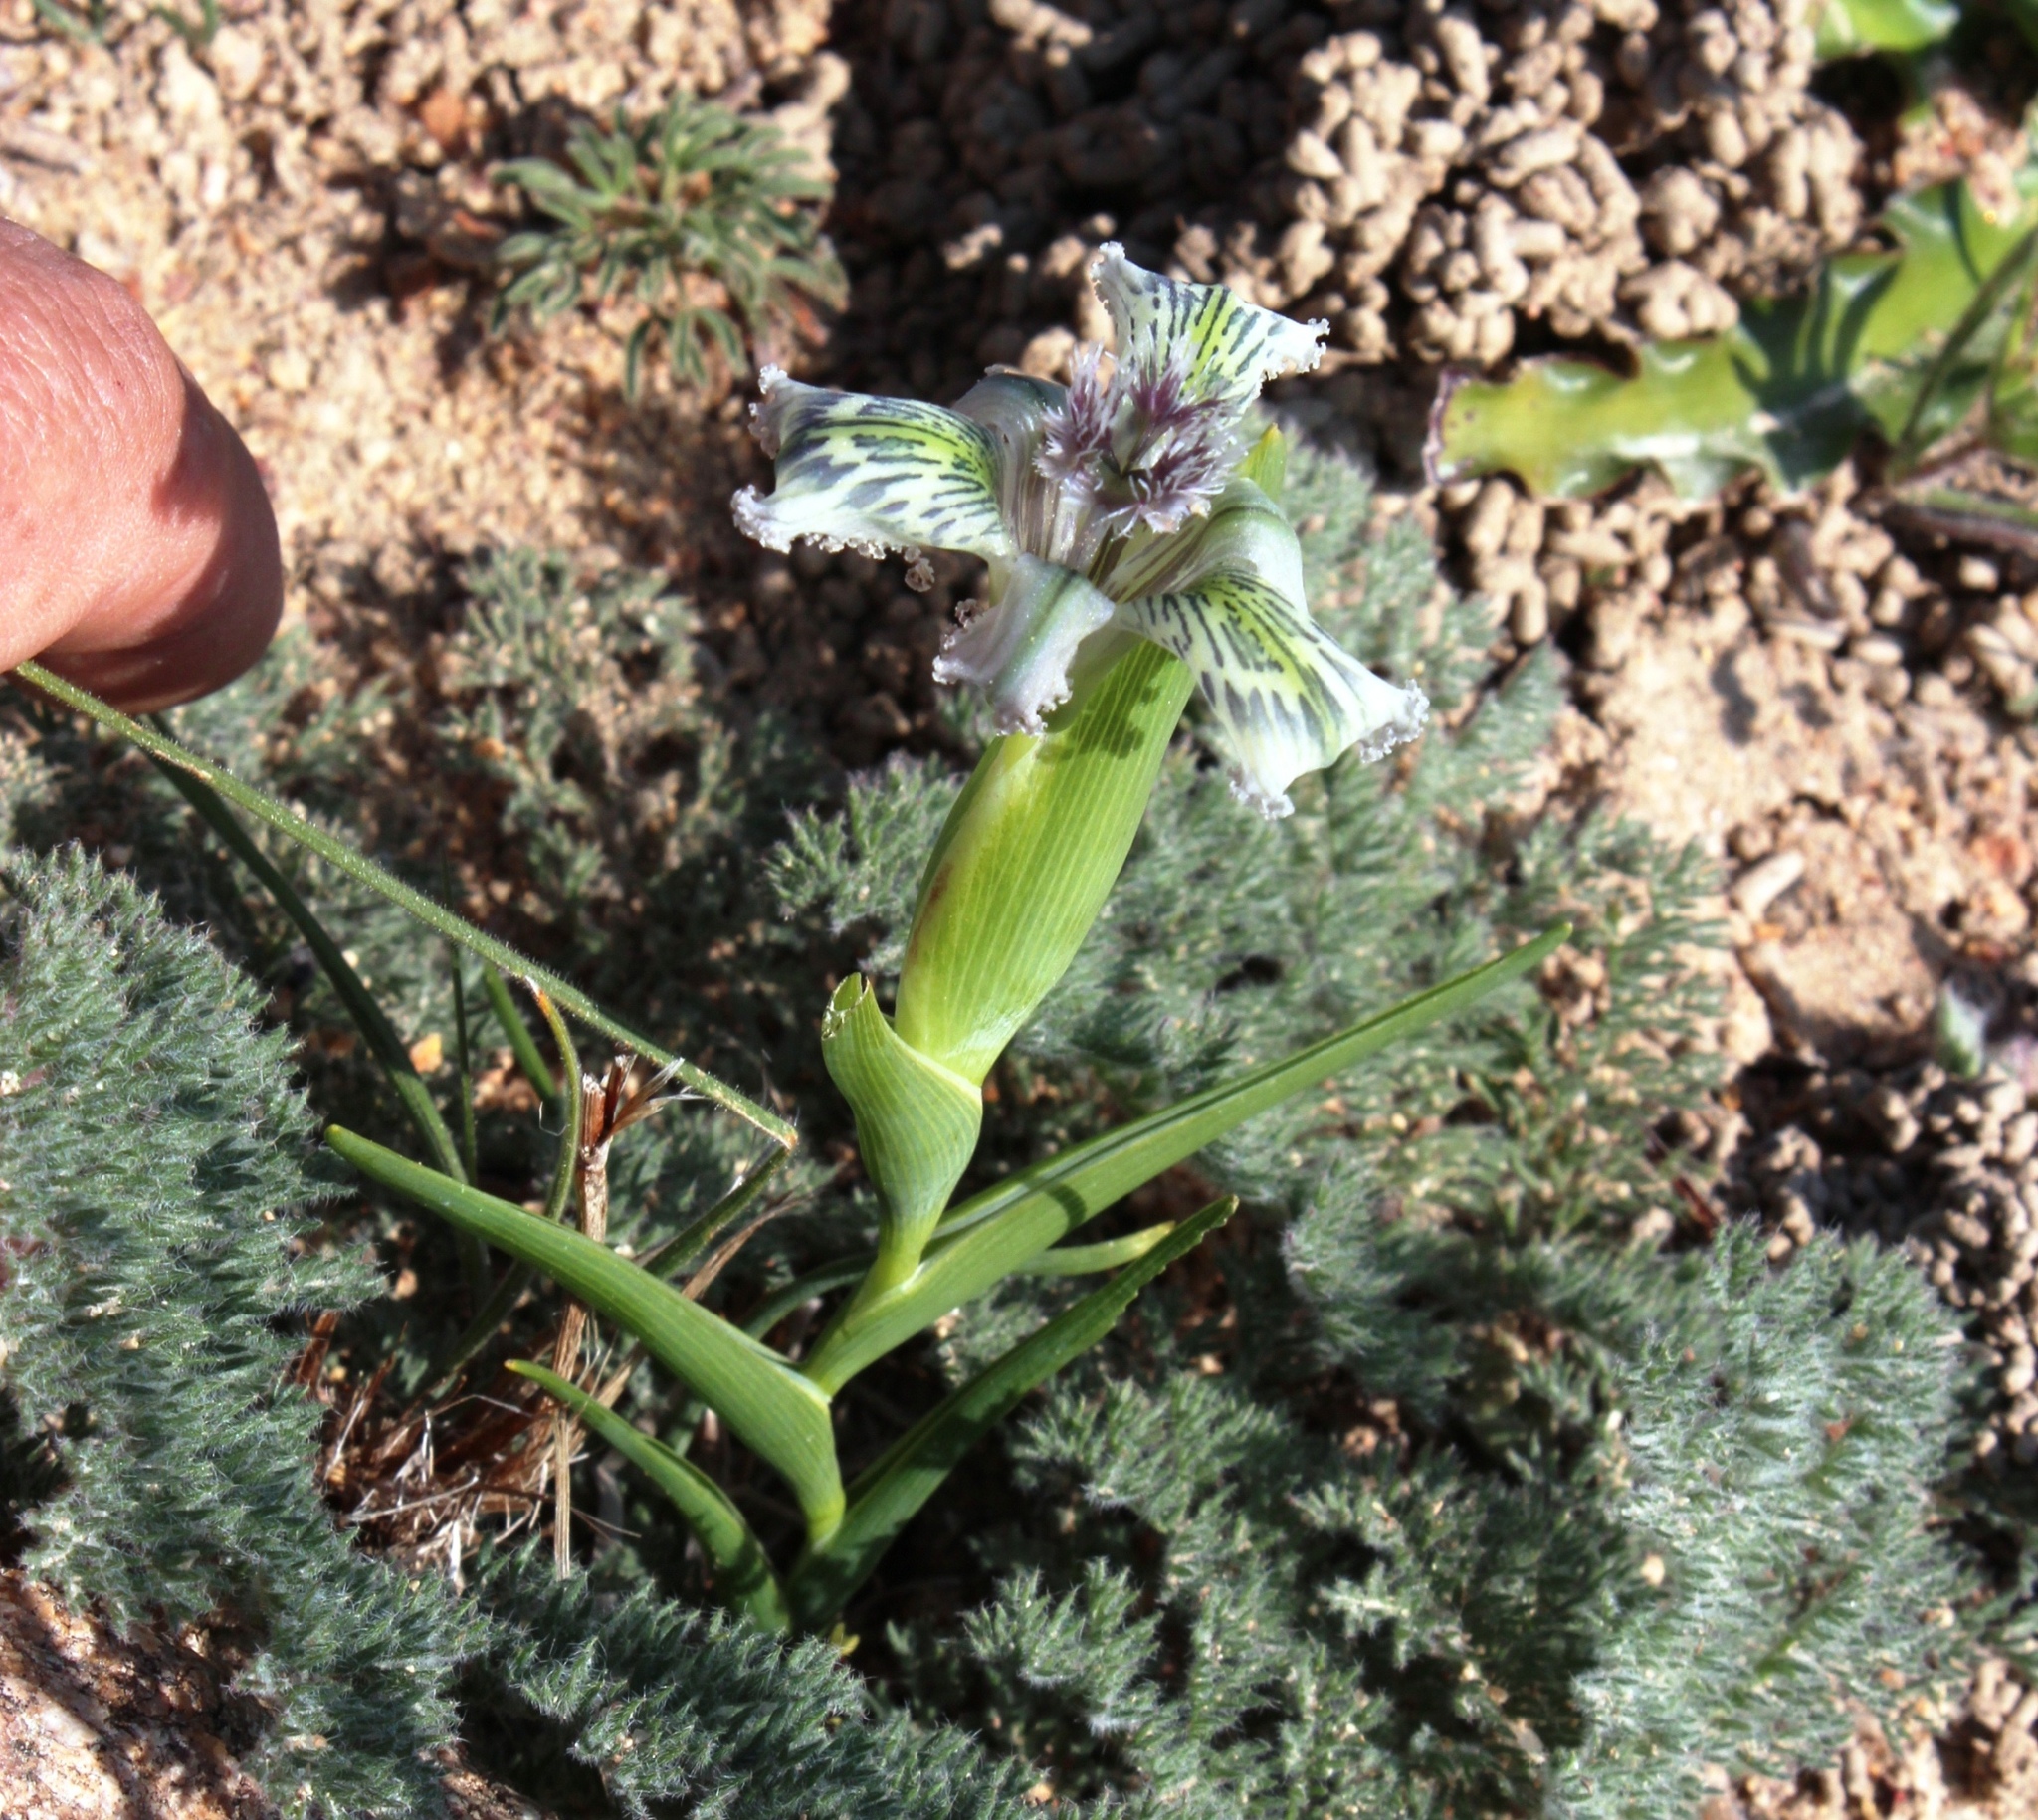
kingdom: Plantae
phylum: Tracheophyta
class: Liliopsida
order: Asparagales
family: Iridaceae
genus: Ferraria
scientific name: Ferraria ferrariola
